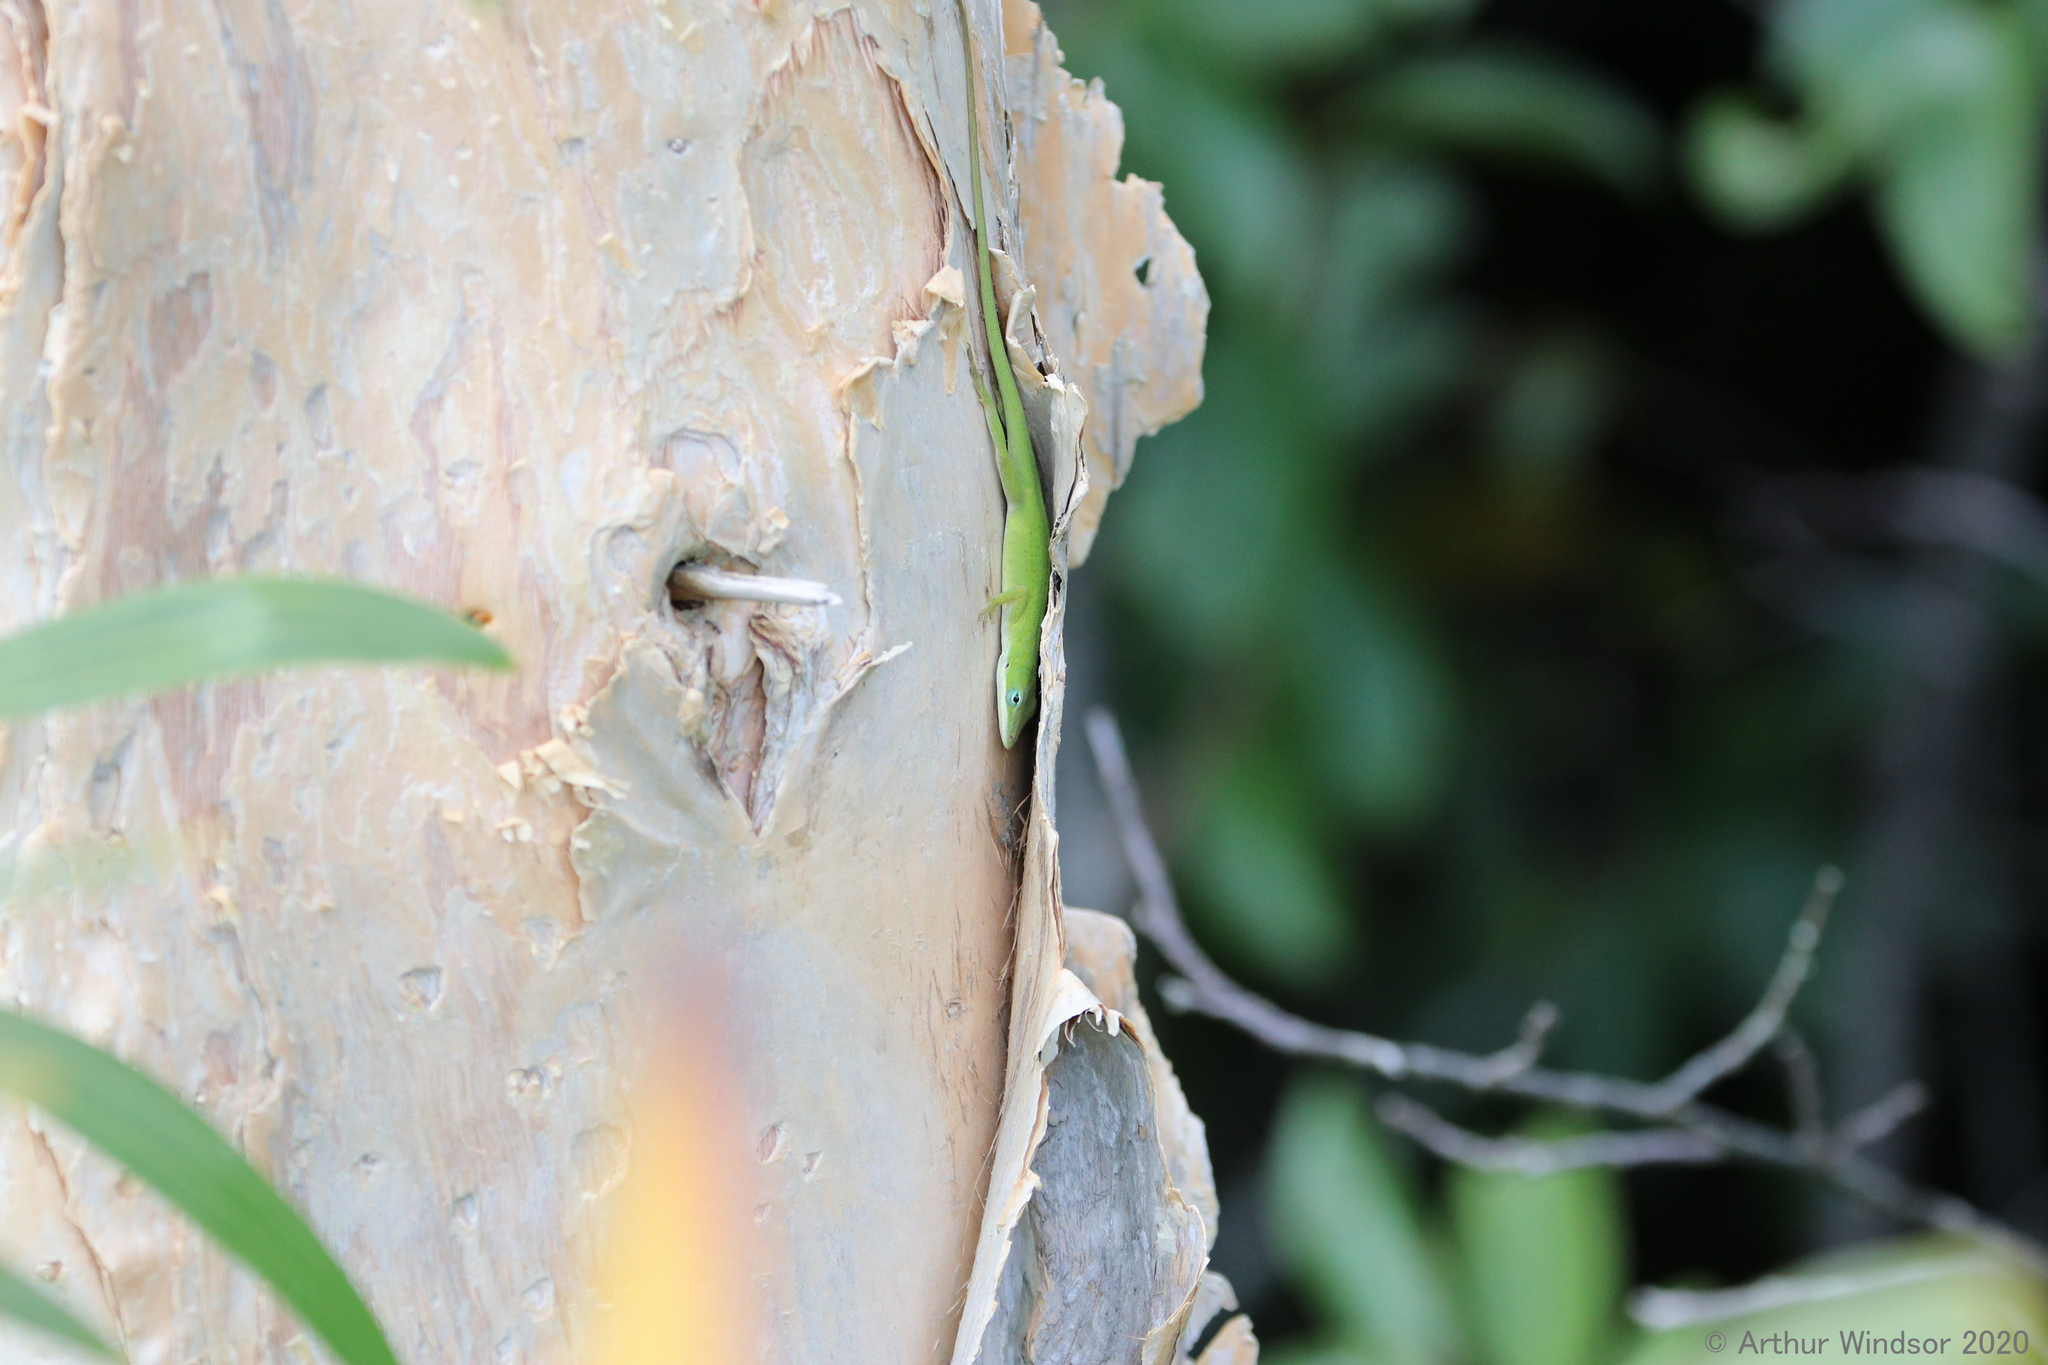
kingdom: Animalia
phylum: Chordata
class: Squamata
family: Dactyloidae
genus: Anolis
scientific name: Anolis carolinensis
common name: Green anole
